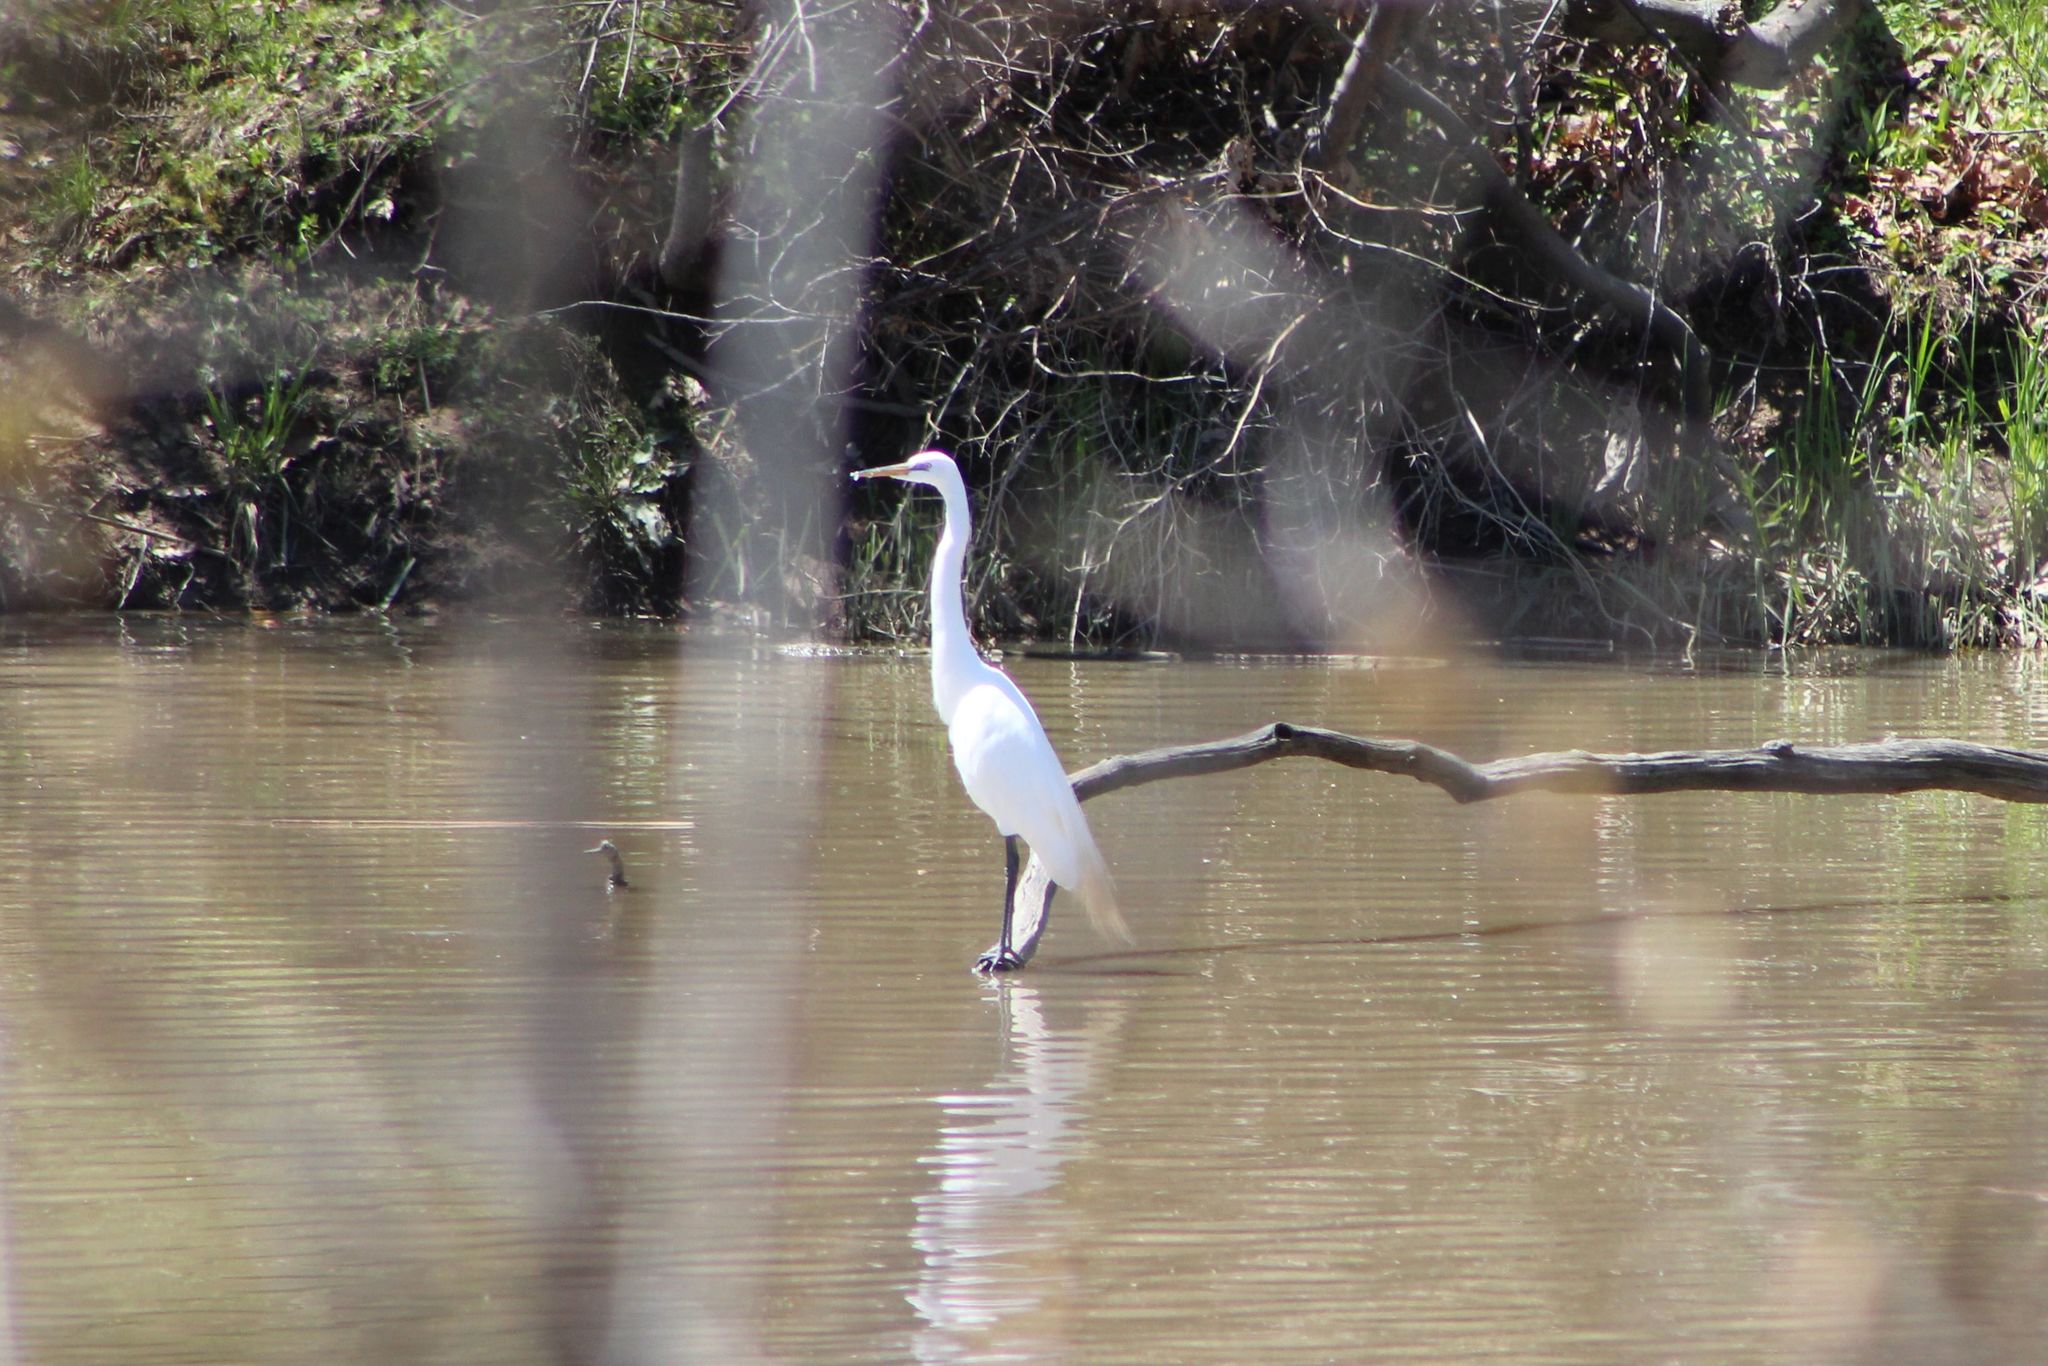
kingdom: Animalia
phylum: Chordata
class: Aves
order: Pelecaniformes
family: Ardeidae
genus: Ardea
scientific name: Ardea alba
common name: Great egret
